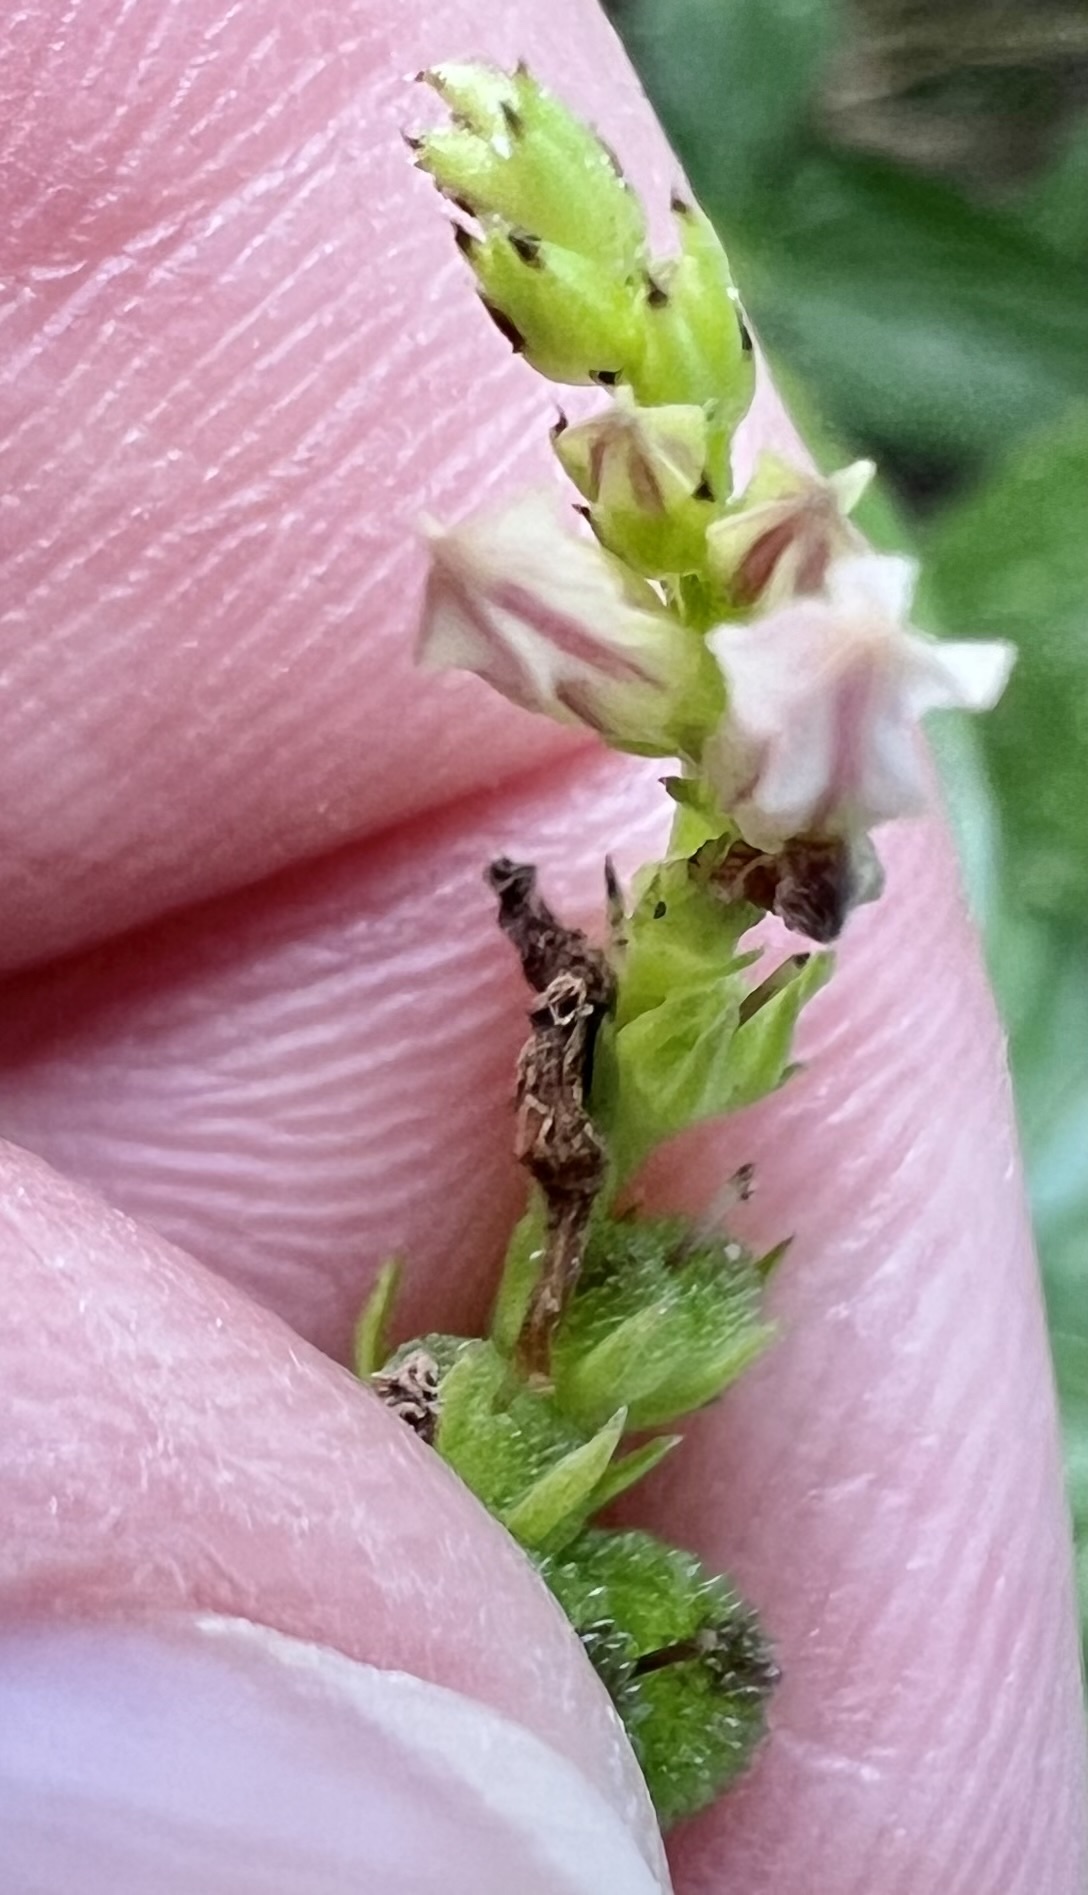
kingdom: Plantae
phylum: Tracheophyta
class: Magnoliopsida
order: Gentianales
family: Loganiaceae
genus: Spigelia
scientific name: Spigelia anthelmia
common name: West indian-pink
